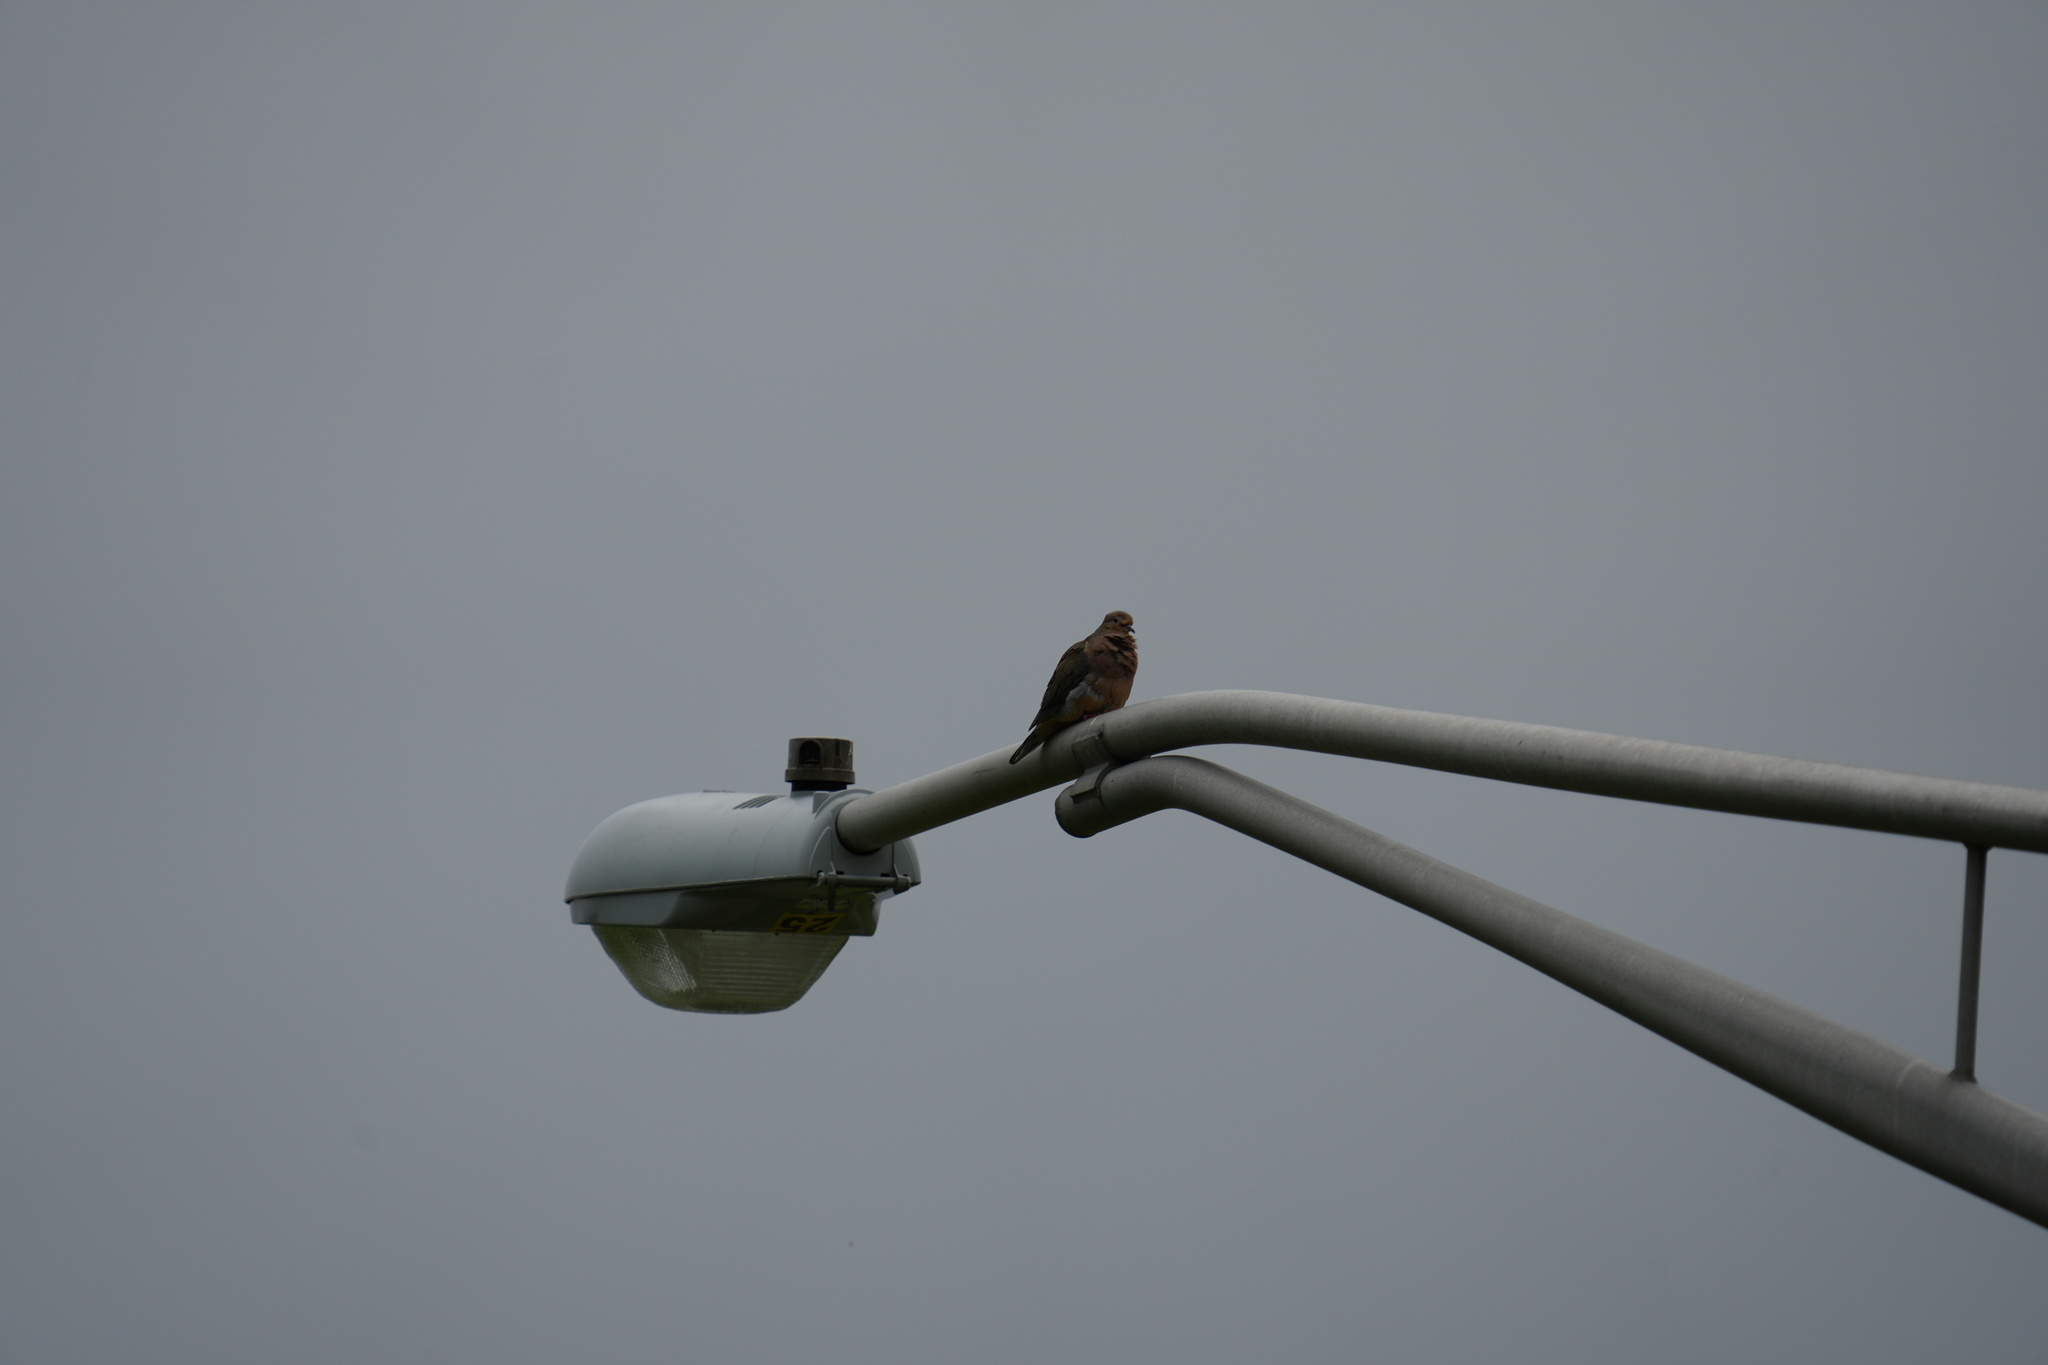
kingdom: Animalia
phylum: Chordata
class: Aves
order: Columbiformes
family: Columbidae
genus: Zenaida
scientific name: Zenaida macroura
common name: Mourning dove
